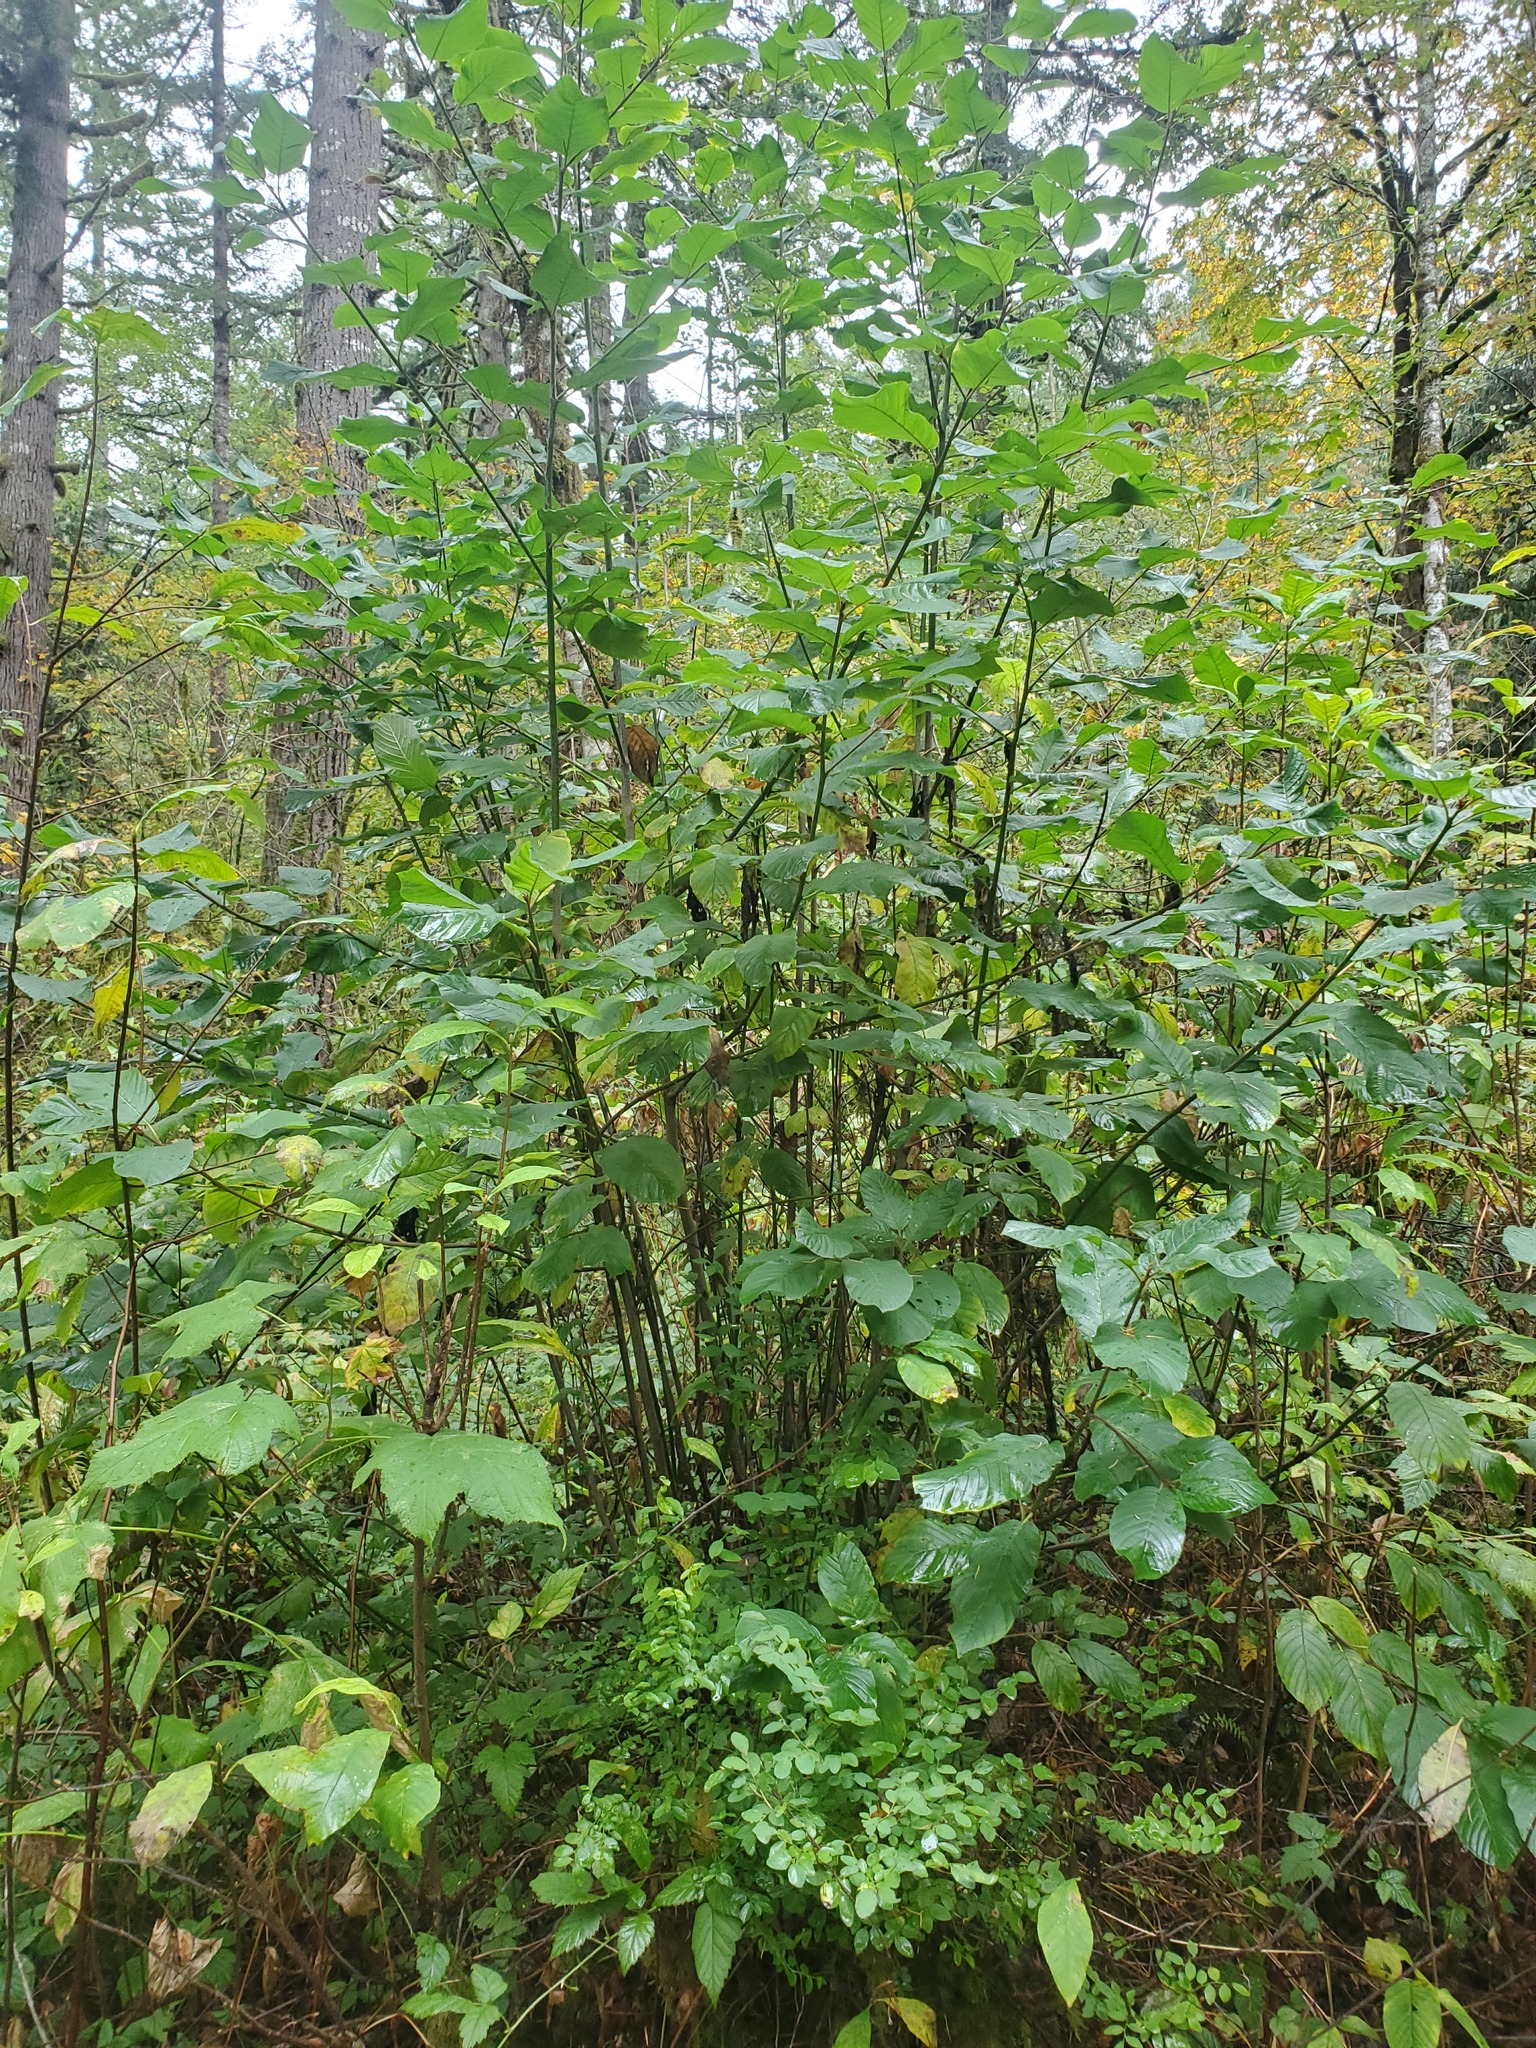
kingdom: Plantae
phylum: Tracheophyta
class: Magnoliopsida
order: Rosales
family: Rhamnaceae
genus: Frangula
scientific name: Frangula purshiana
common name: Cascara buckthorn
